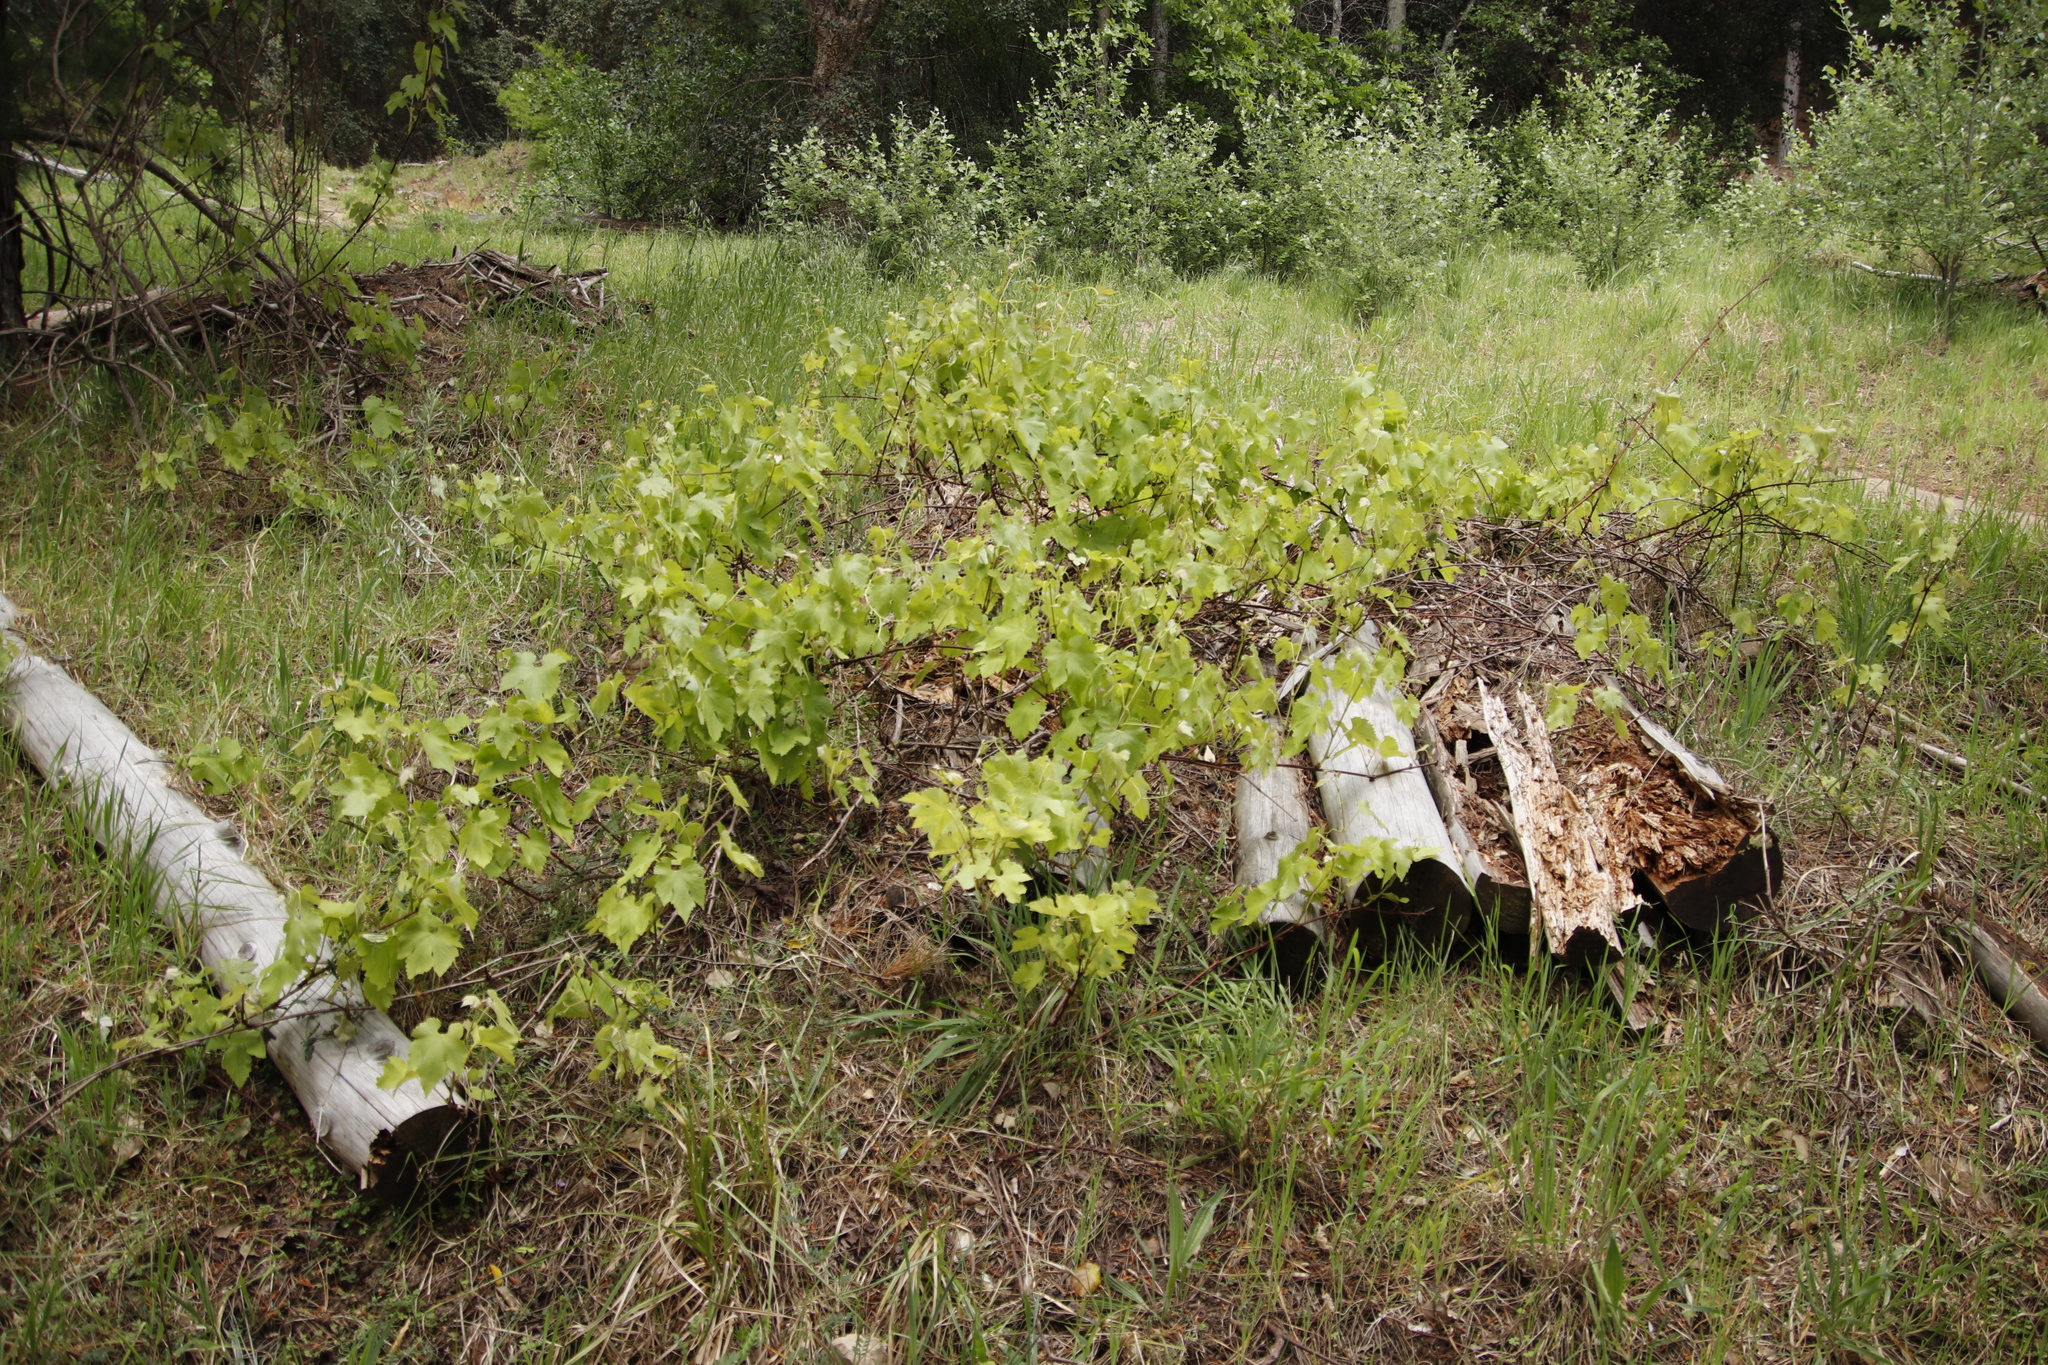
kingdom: Plantae
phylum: Tracheophyta
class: Magnoliopsida
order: Vitales
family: Vitaceae
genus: Vitis
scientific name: Vitis vinifera
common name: Grape-vine
